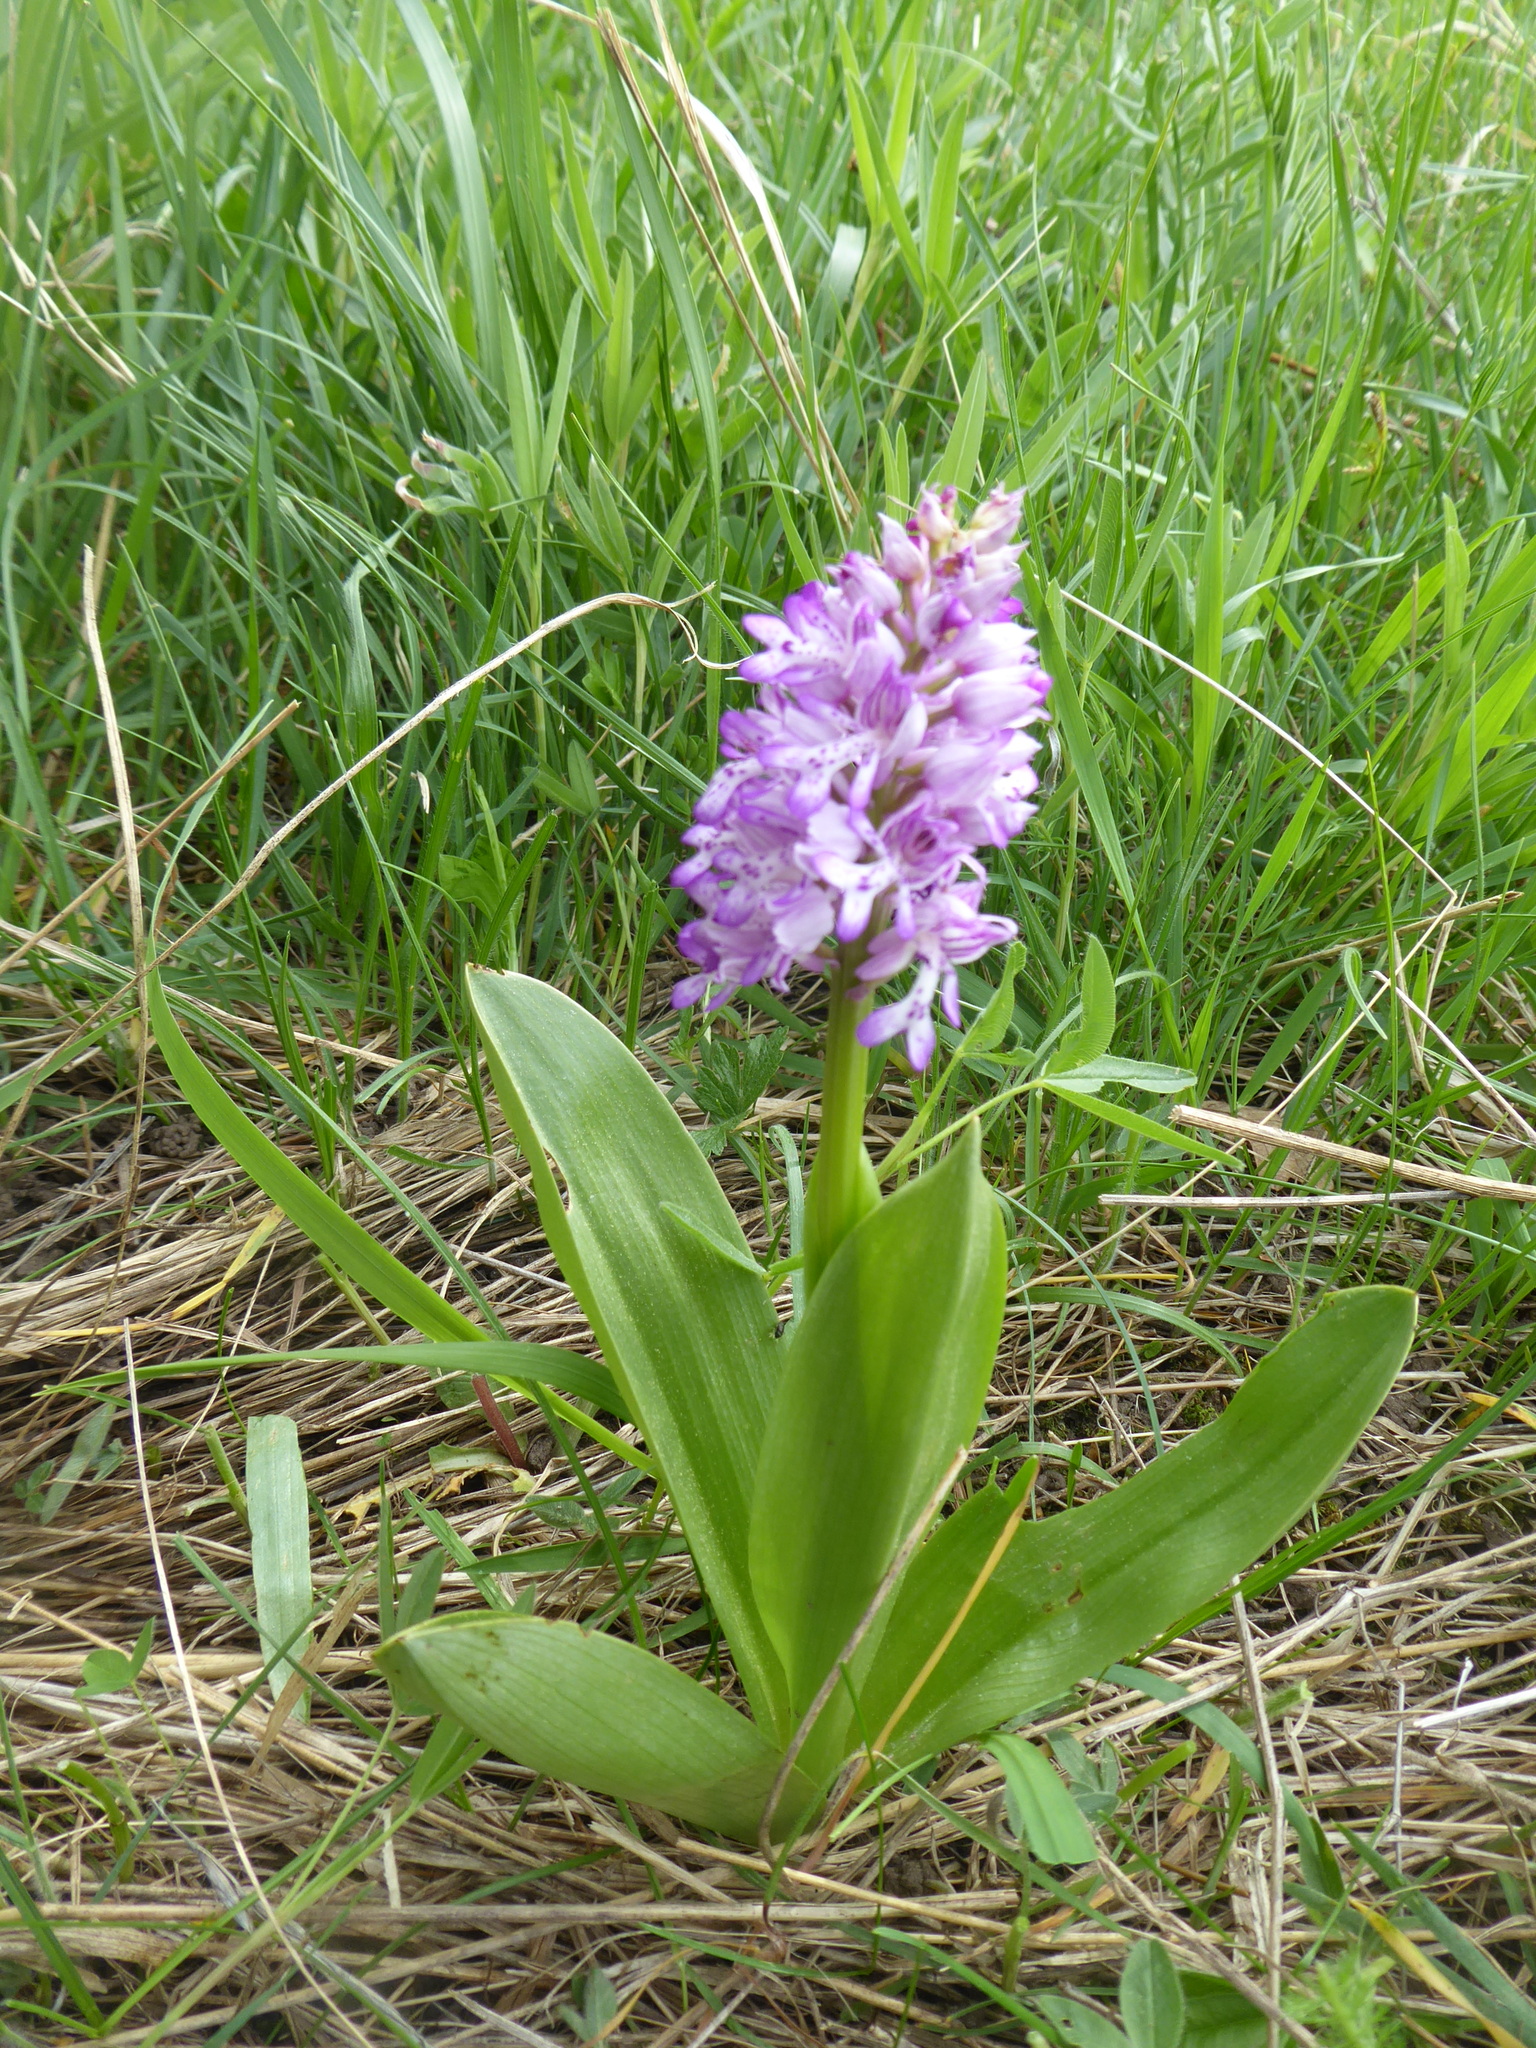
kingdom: Plantae
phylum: Tracheophyta
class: Liliopsida
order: Asparagales
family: Orchidaceae
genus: Orchis
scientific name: Orchis militaris
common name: Military orchid
